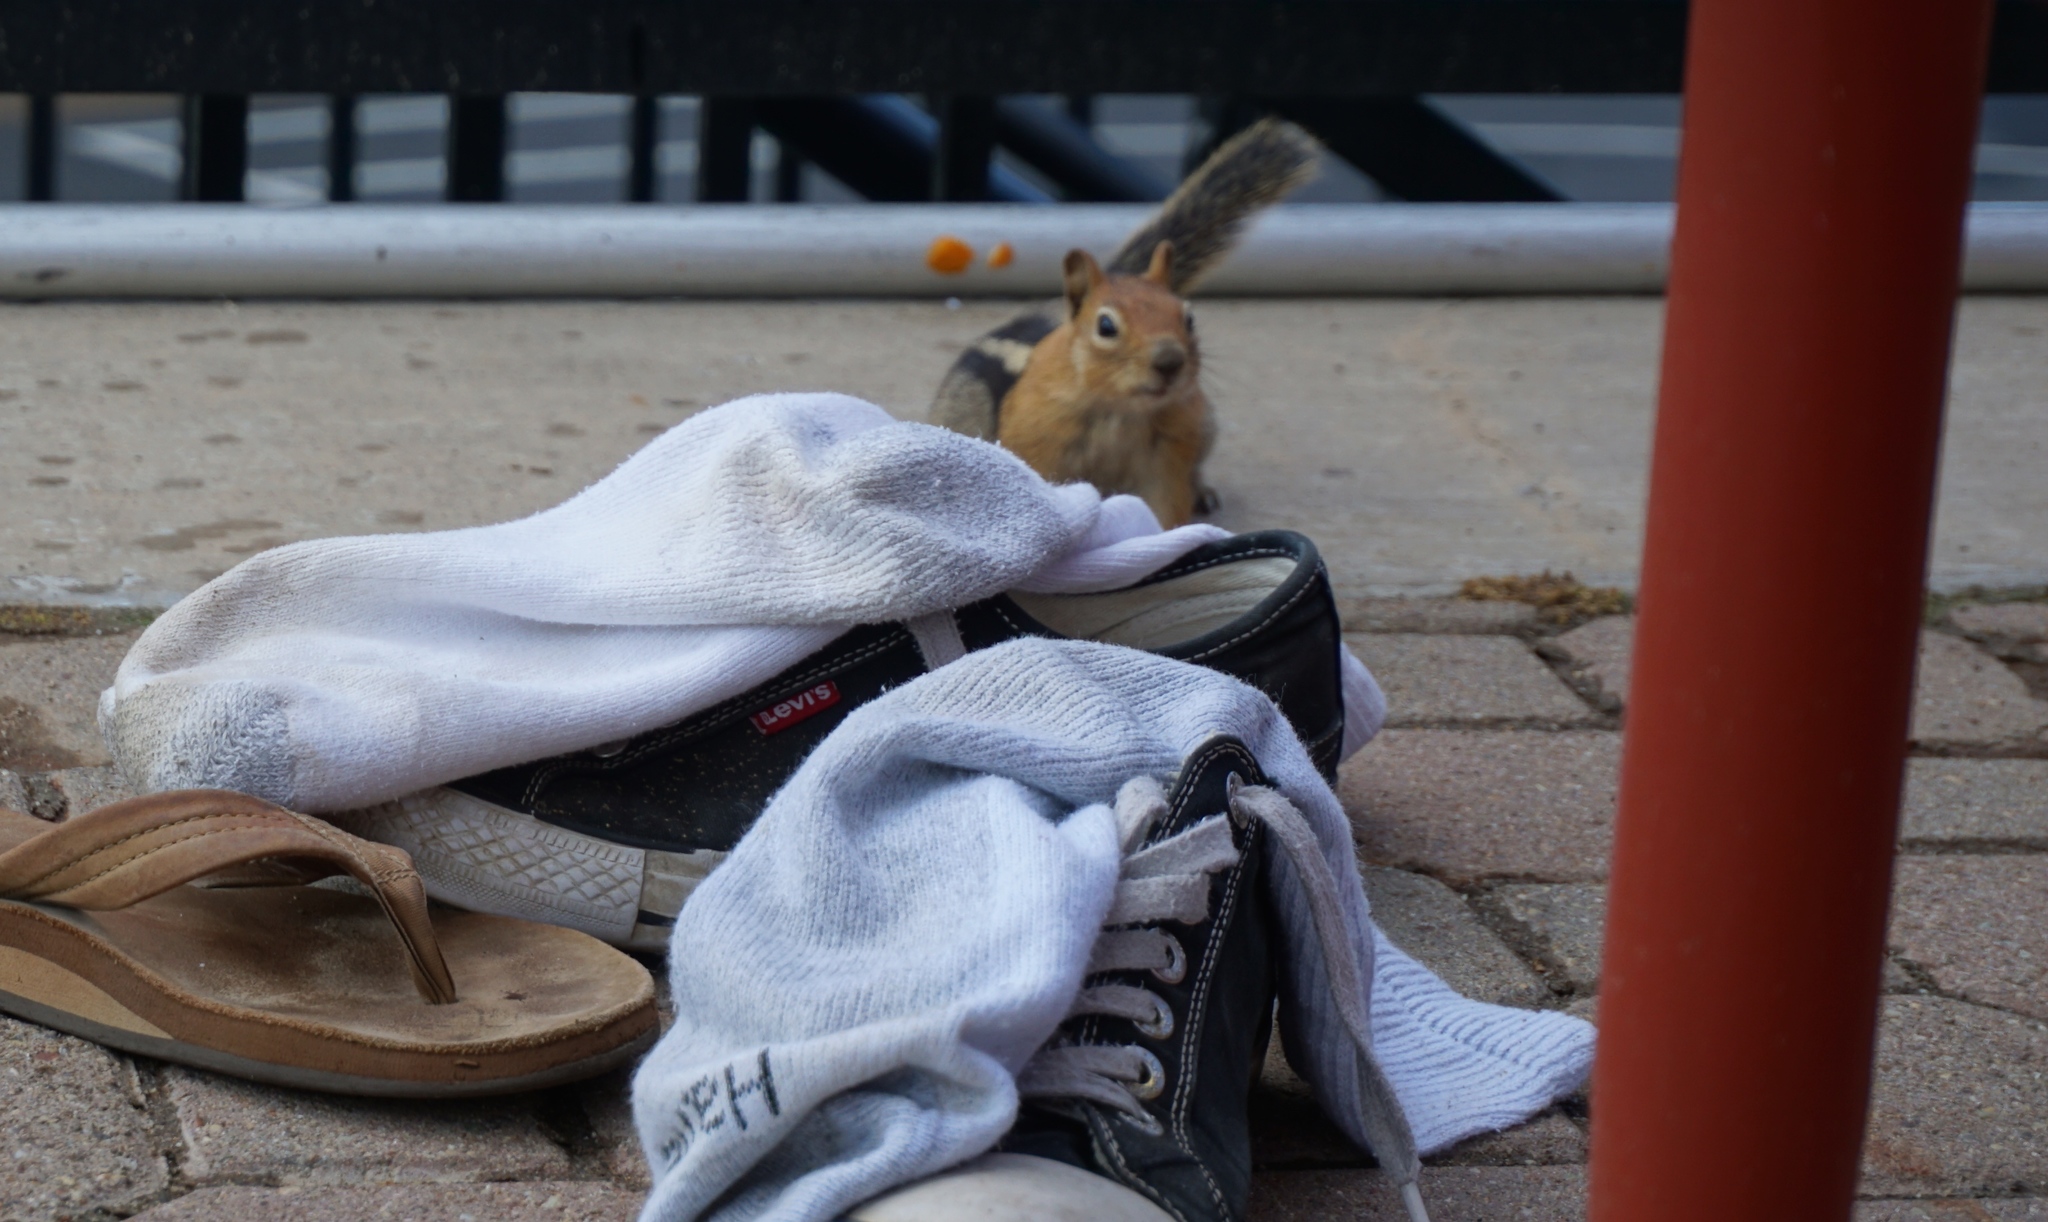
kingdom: Animalia
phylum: Chordata
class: Mammalia
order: Rodentia
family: Sciuridae
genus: Callospermophilus
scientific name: Callospermophilus lateralis
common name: Golden-mantled ground squirrel
